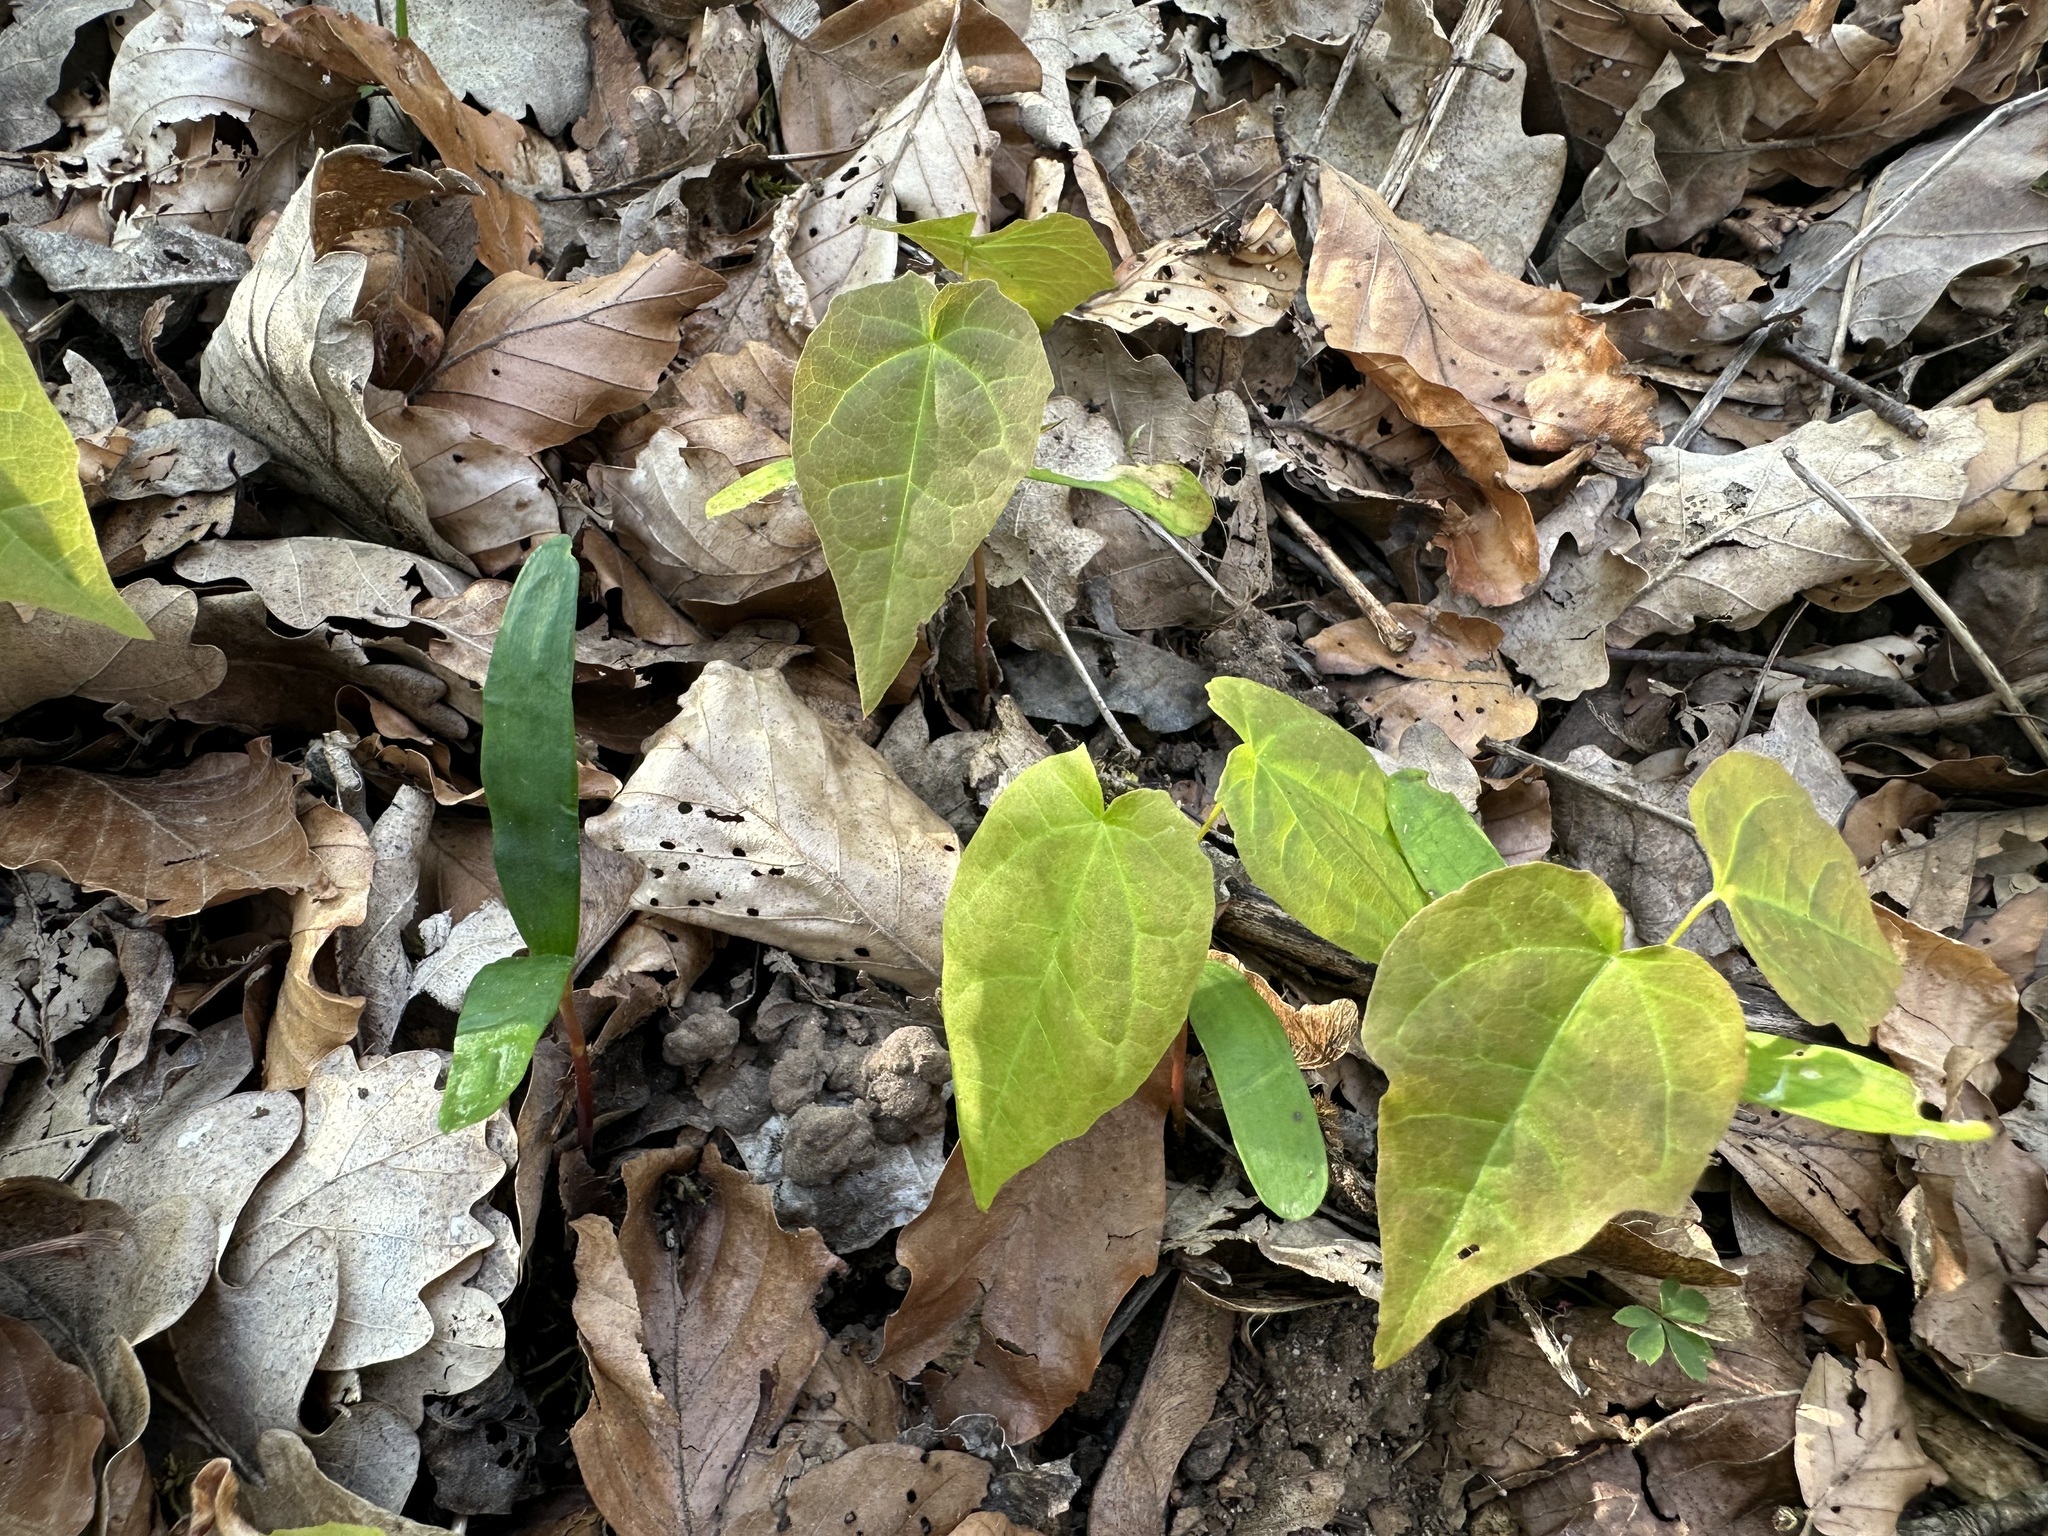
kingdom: Plantae
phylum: Tracheophyta
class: Magnoliopsida
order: Sapindales
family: Sapindaceae
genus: Acer
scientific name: Acer platanoides
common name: Norway maple
